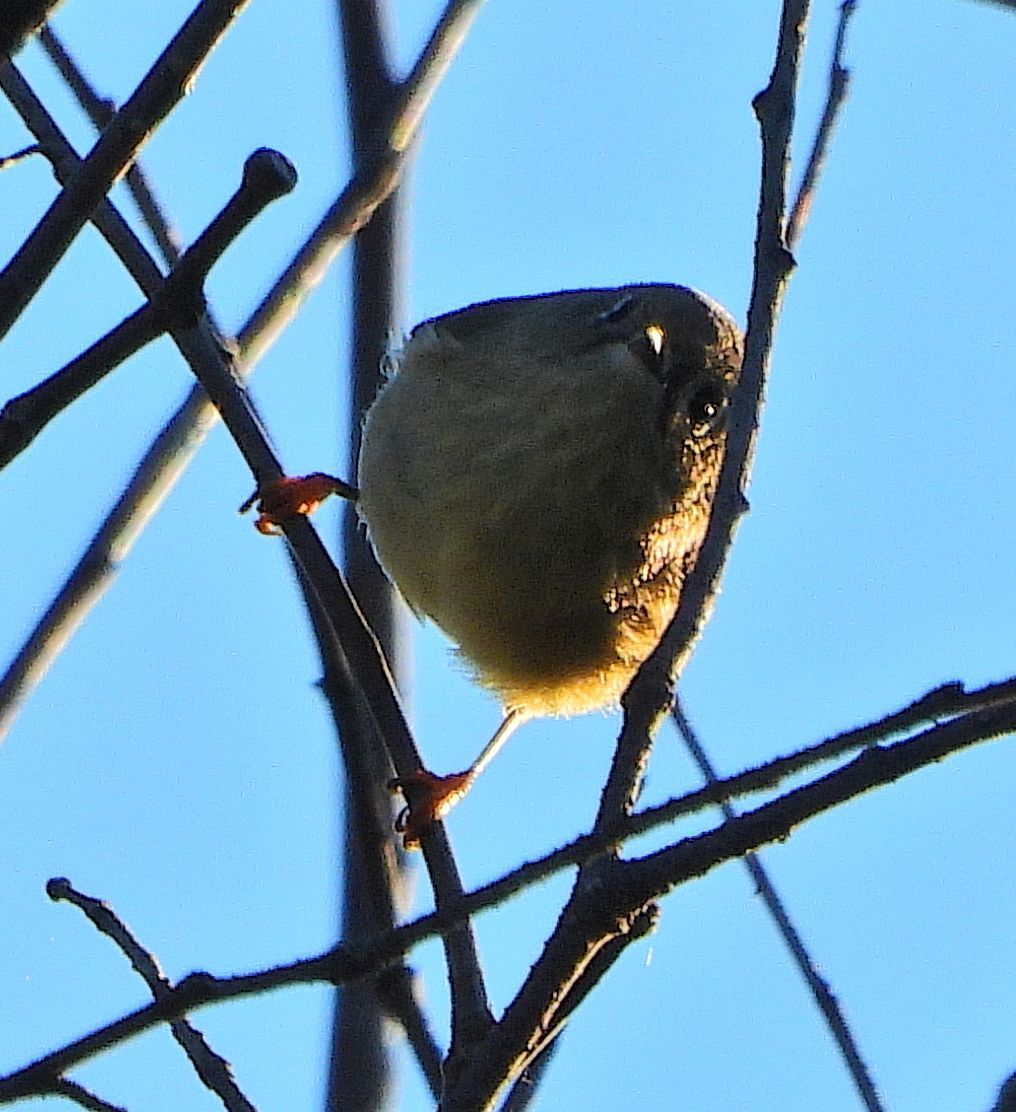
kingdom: Animalia
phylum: Chordata
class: Aves
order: Passeriformes
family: Regulidae
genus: Regulus
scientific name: Regulus calendula
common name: Ruby-crowned kinglet
